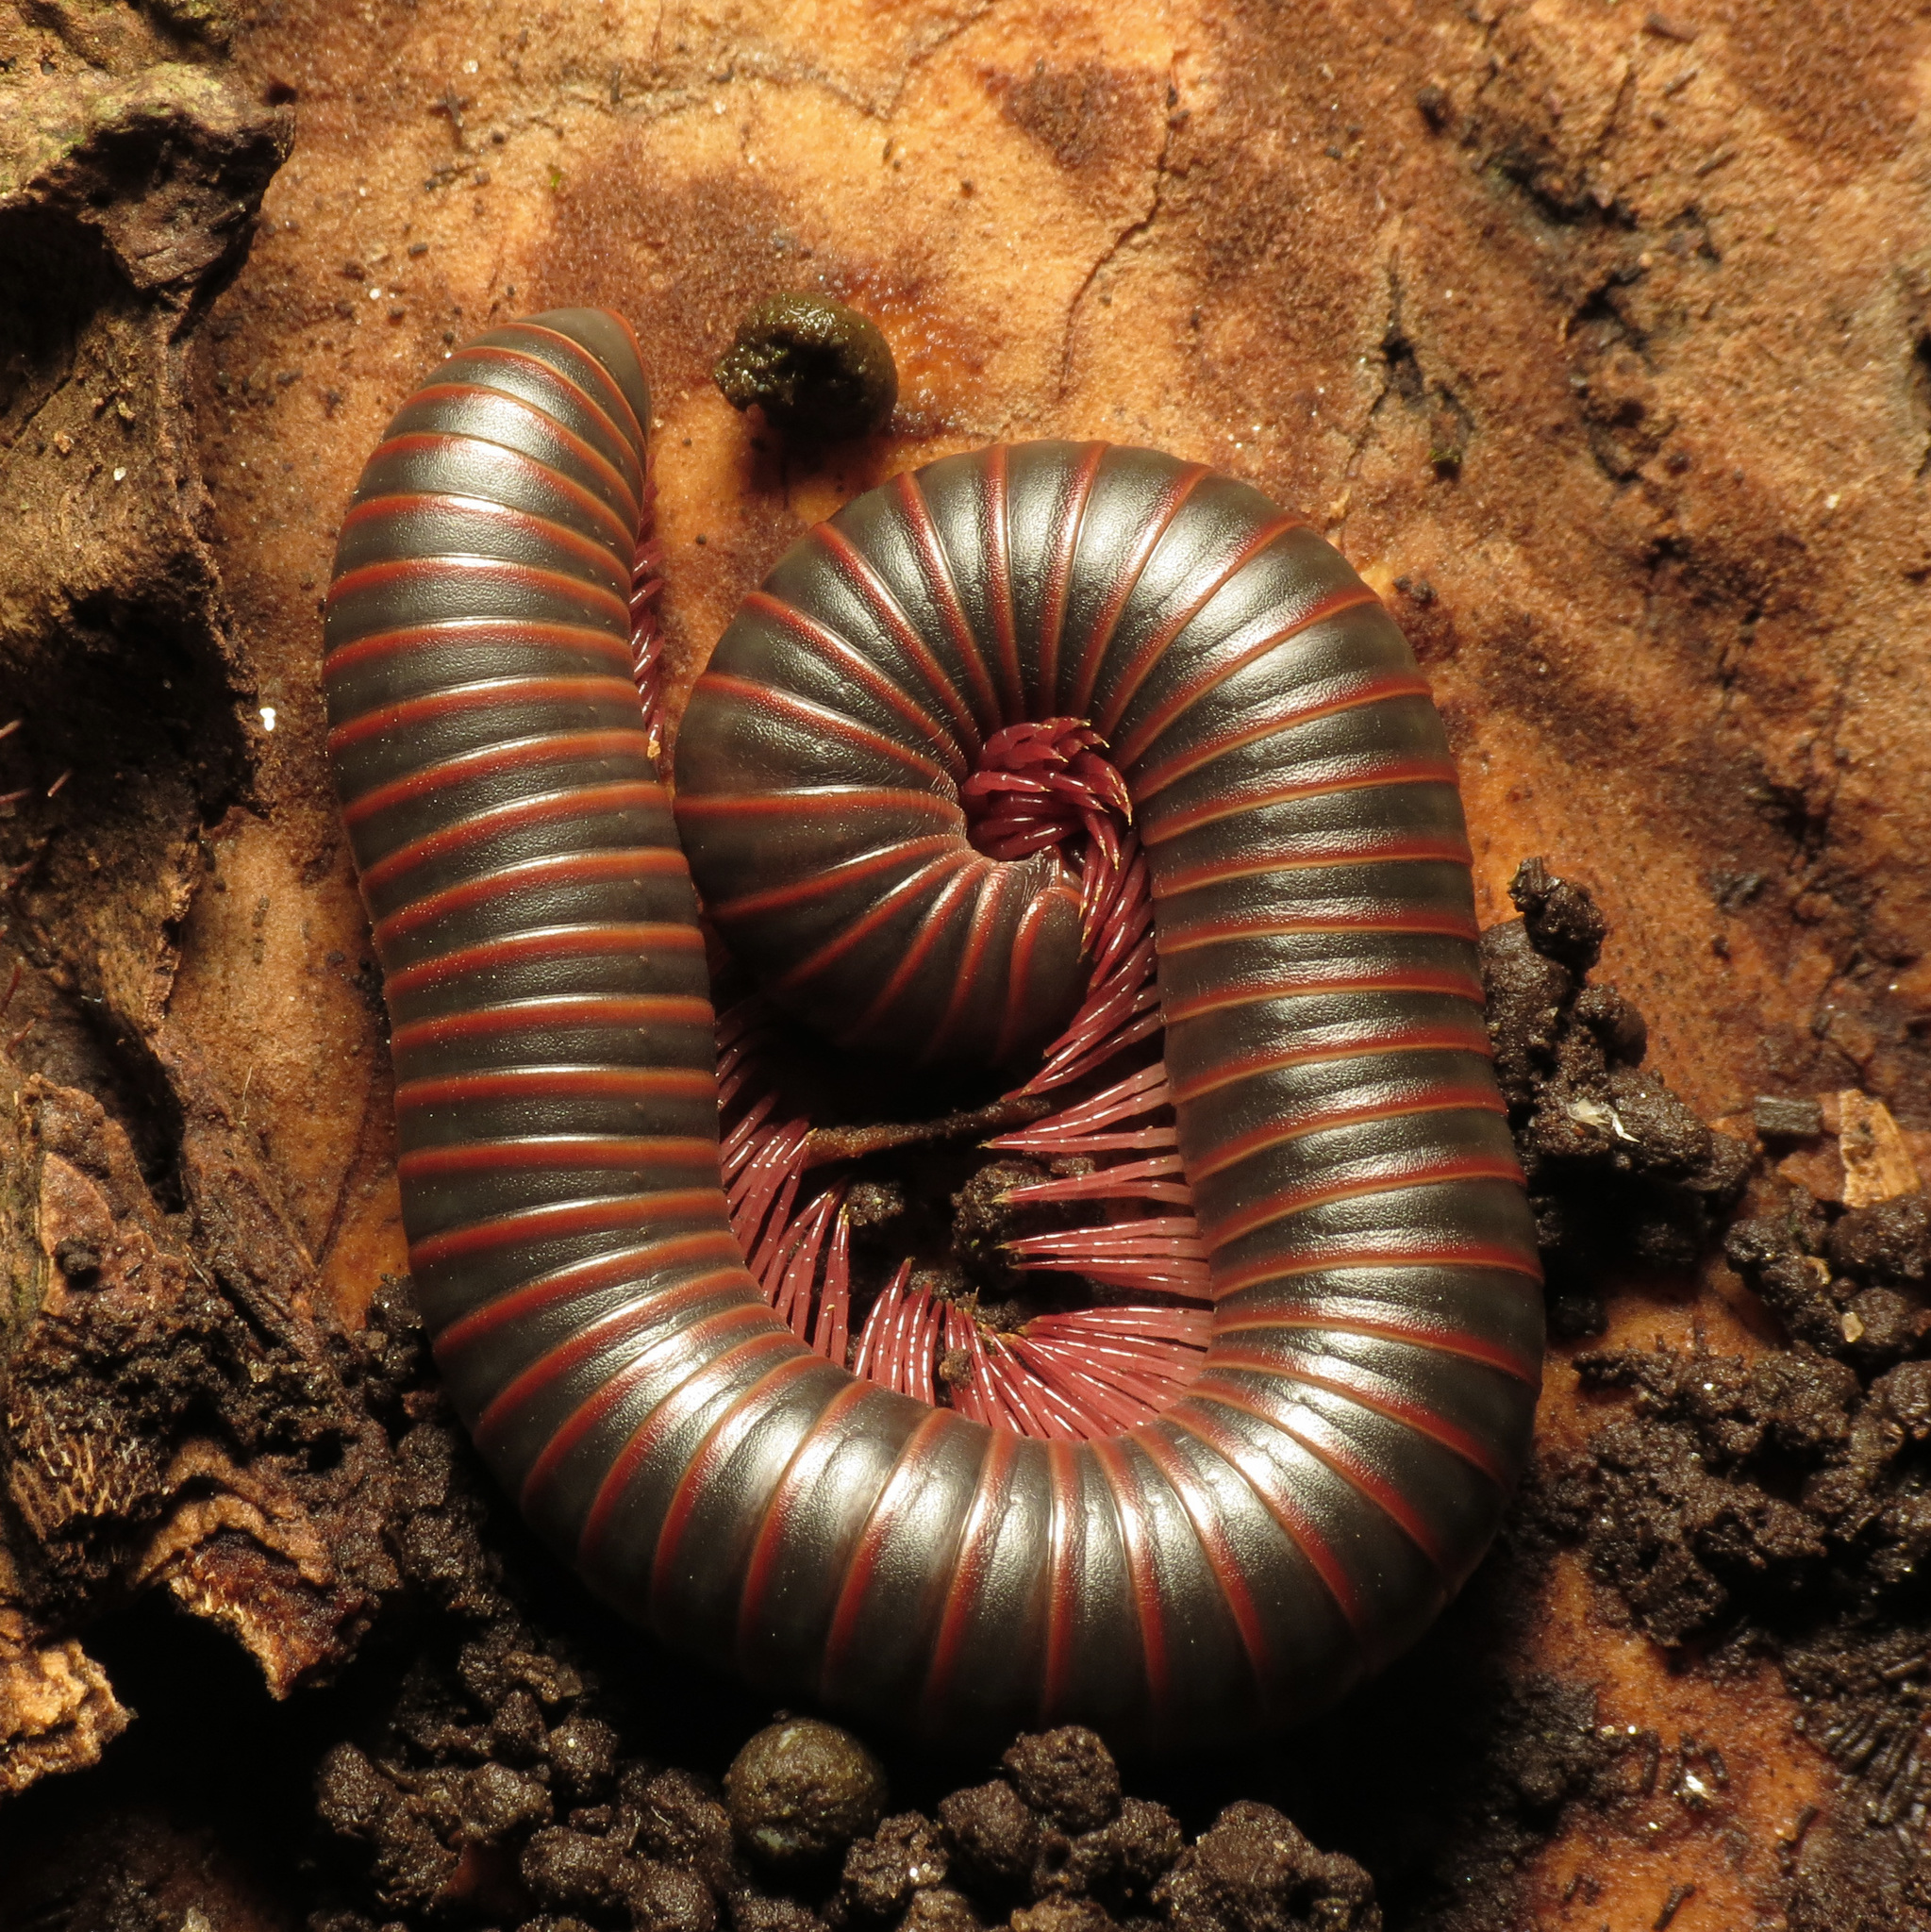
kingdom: Animalia
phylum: Arthropoda
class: Diplopoda
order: Spirobolida
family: Spirobolidae
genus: Narceus
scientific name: Narceus
